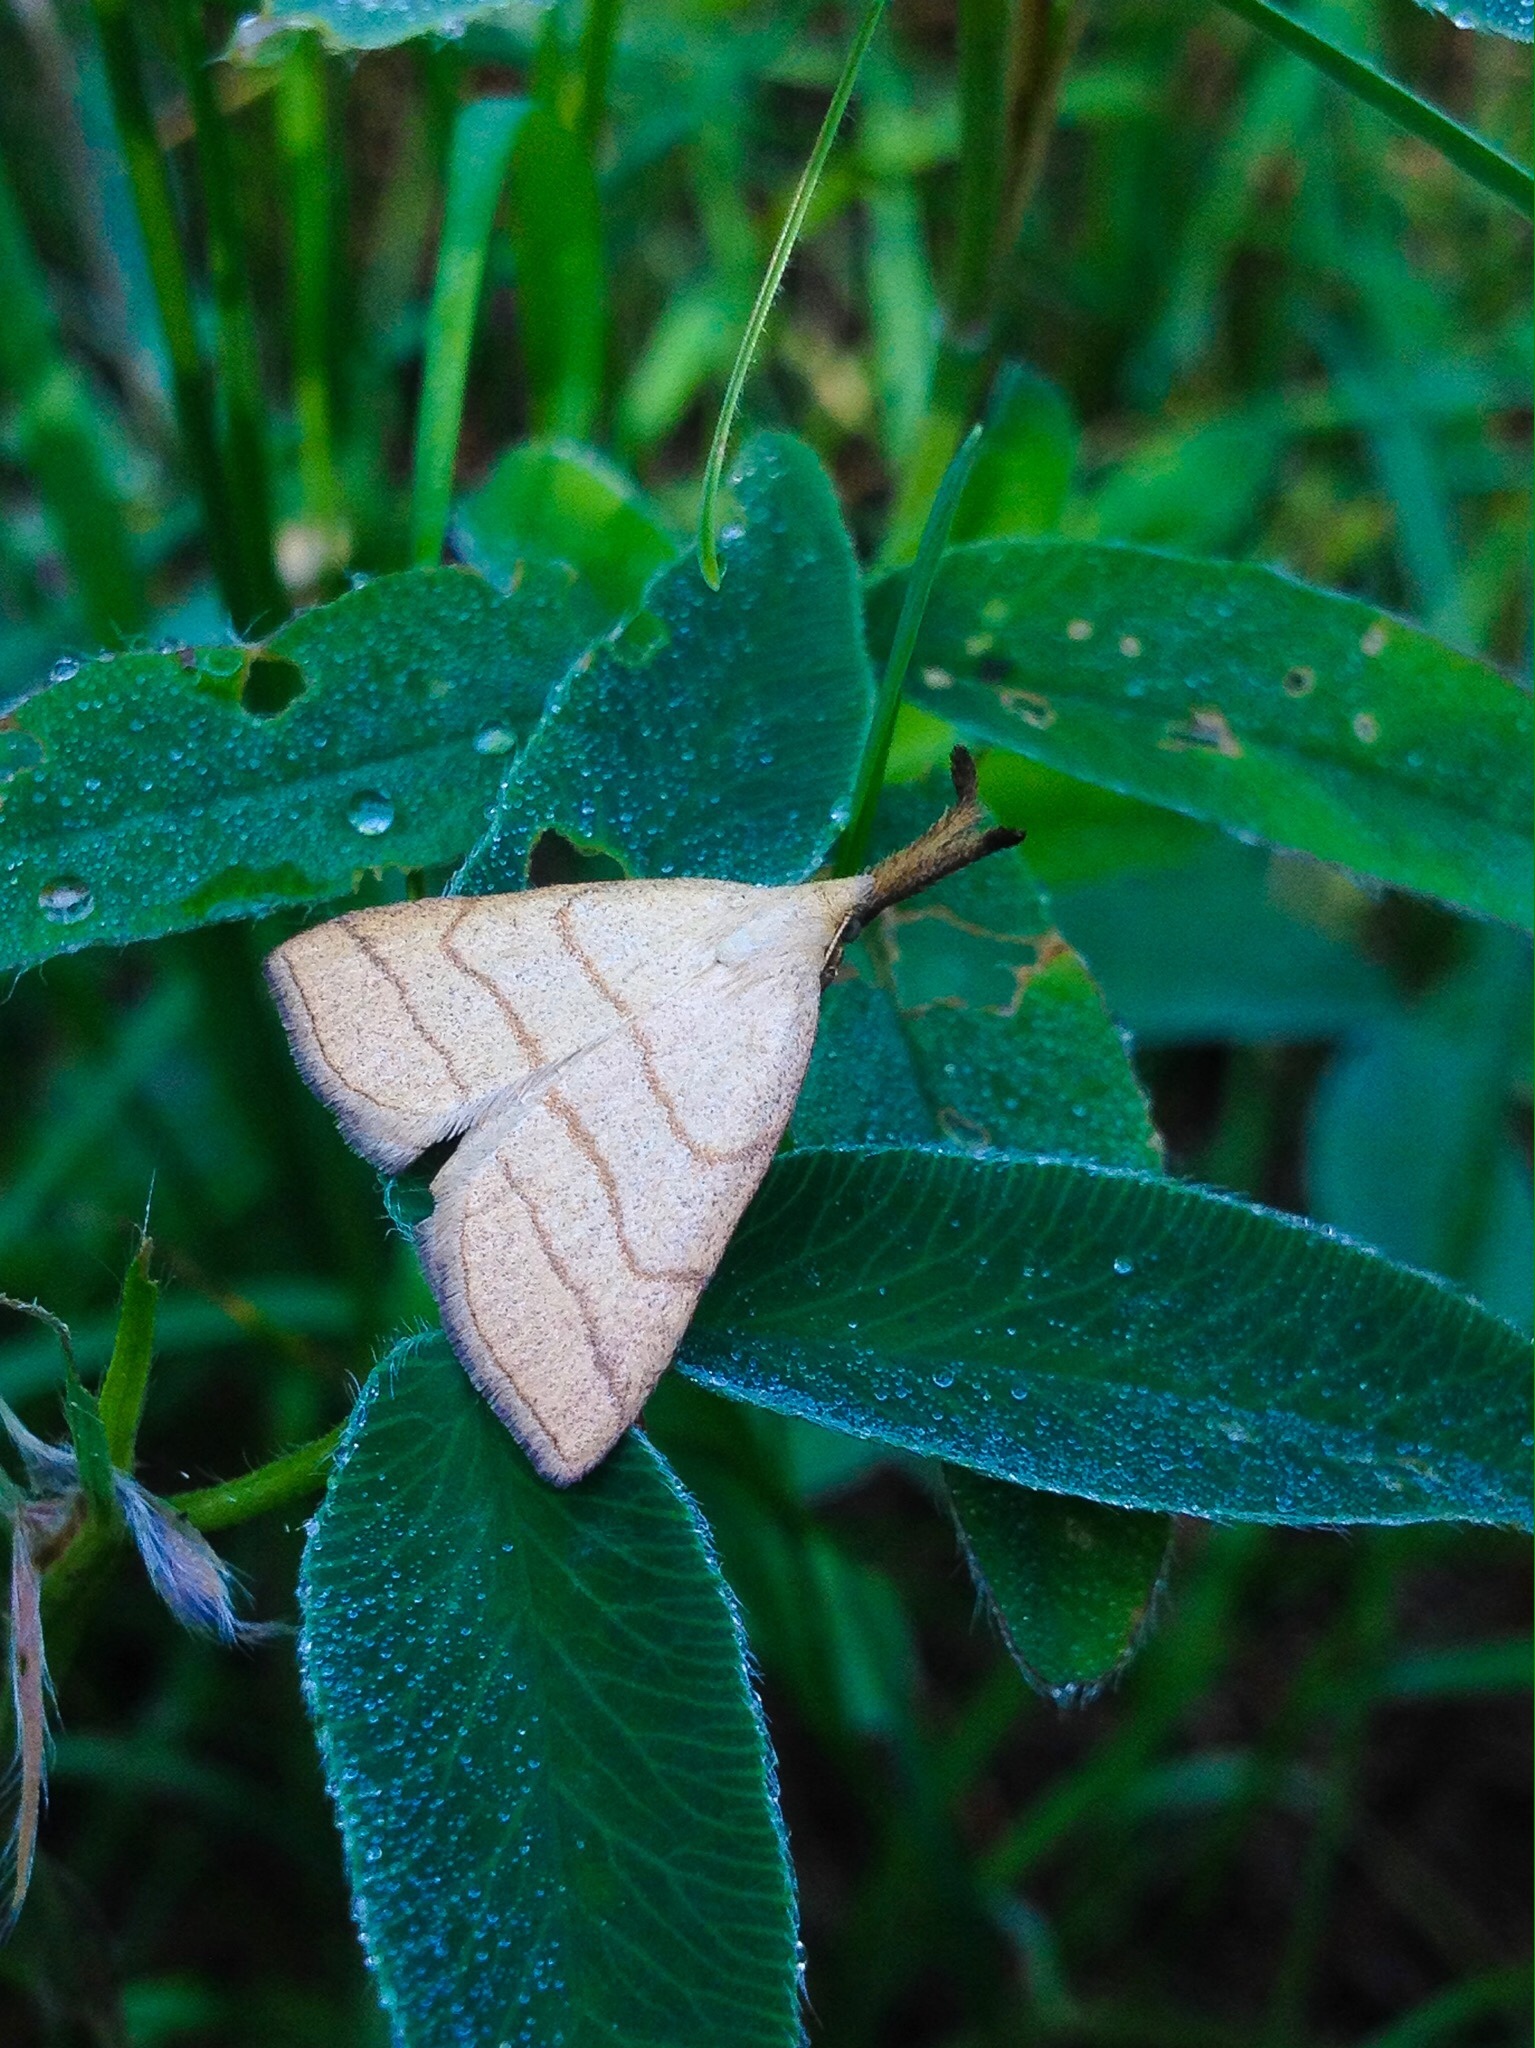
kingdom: Animalia
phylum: Arthropoda
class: Insecta
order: Lepidoptera
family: Erebidae
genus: Polypogon
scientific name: Polypogon tentacularia
